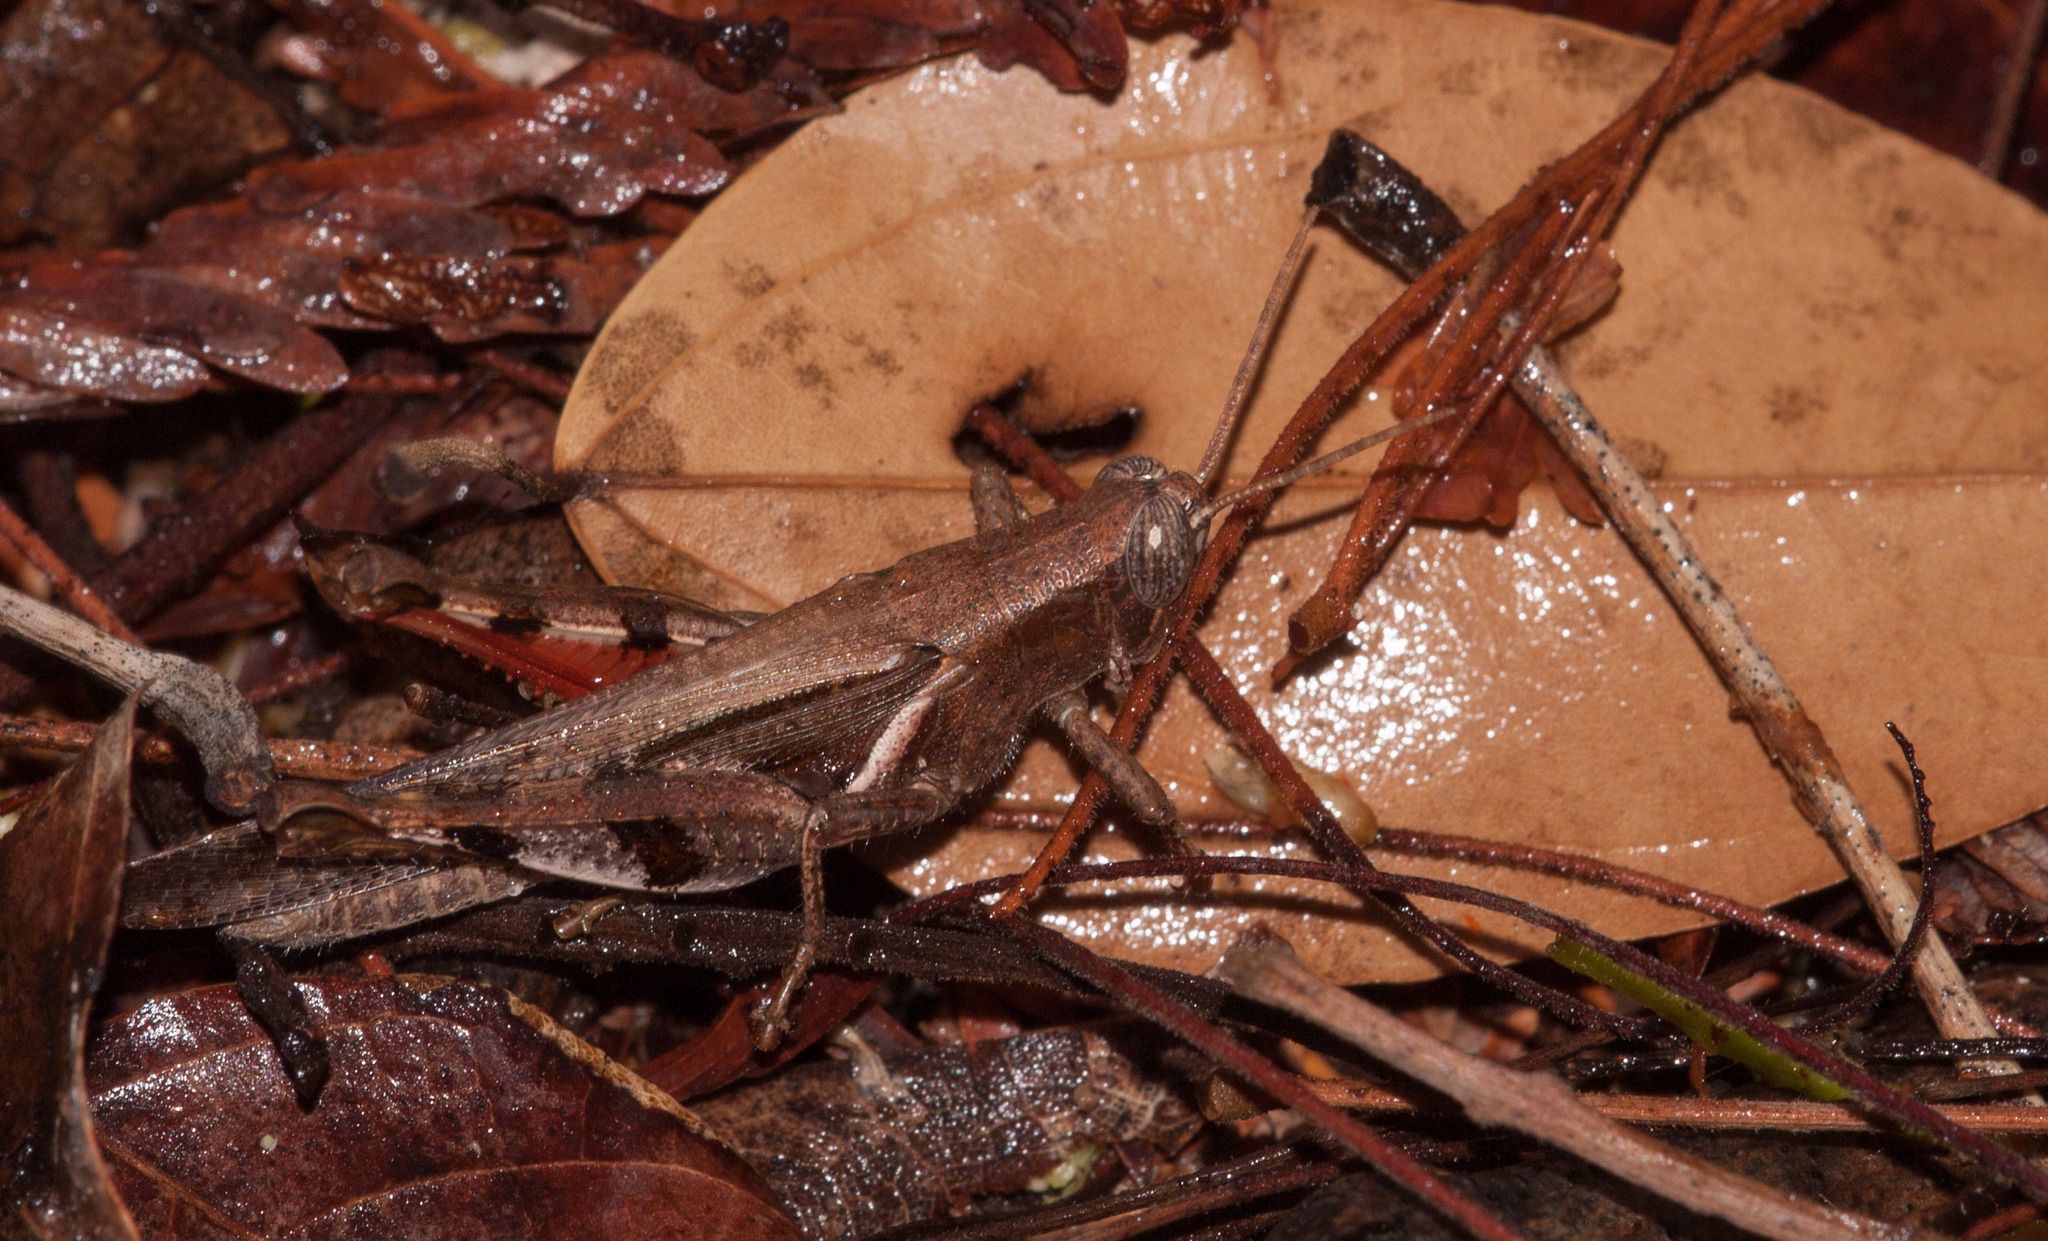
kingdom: Animalia
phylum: Arthropoda
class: Insecta
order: Orthoptera
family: Acrididae
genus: Stenocatantops
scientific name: Stenocatantops angustifrons
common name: Common tropical sharptail
